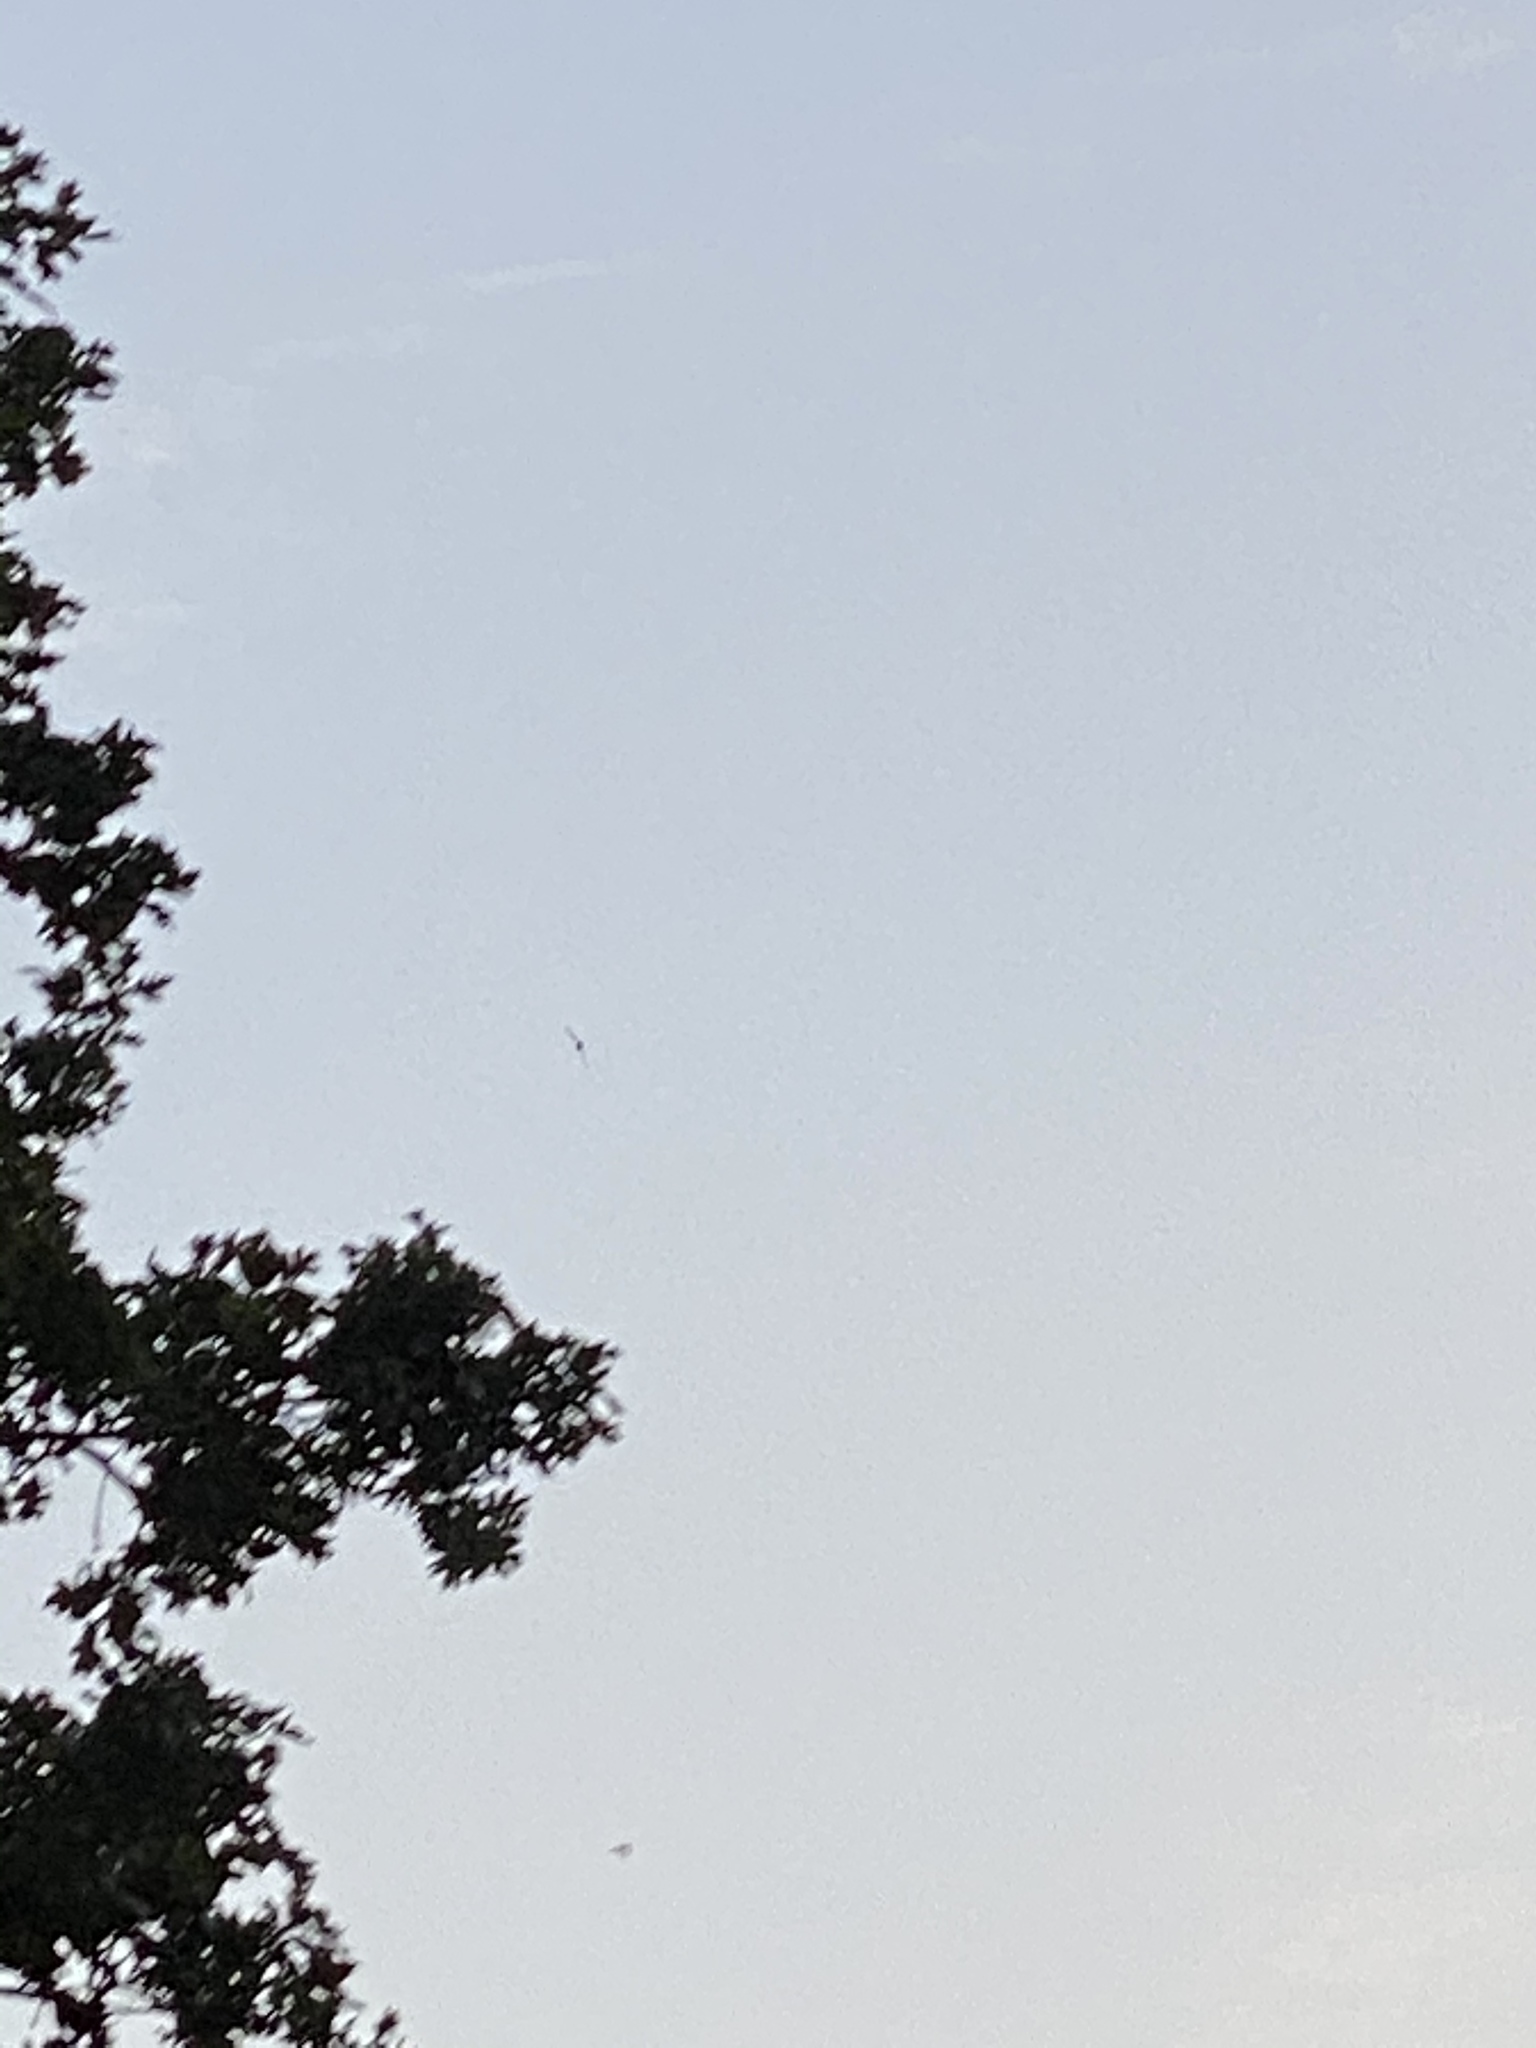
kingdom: Animalia
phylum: Chordata
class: Aves
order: Apodiformes
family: Apodidae
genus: Chaetura
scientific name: Chaetura vauxi
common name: Vaux's swift
